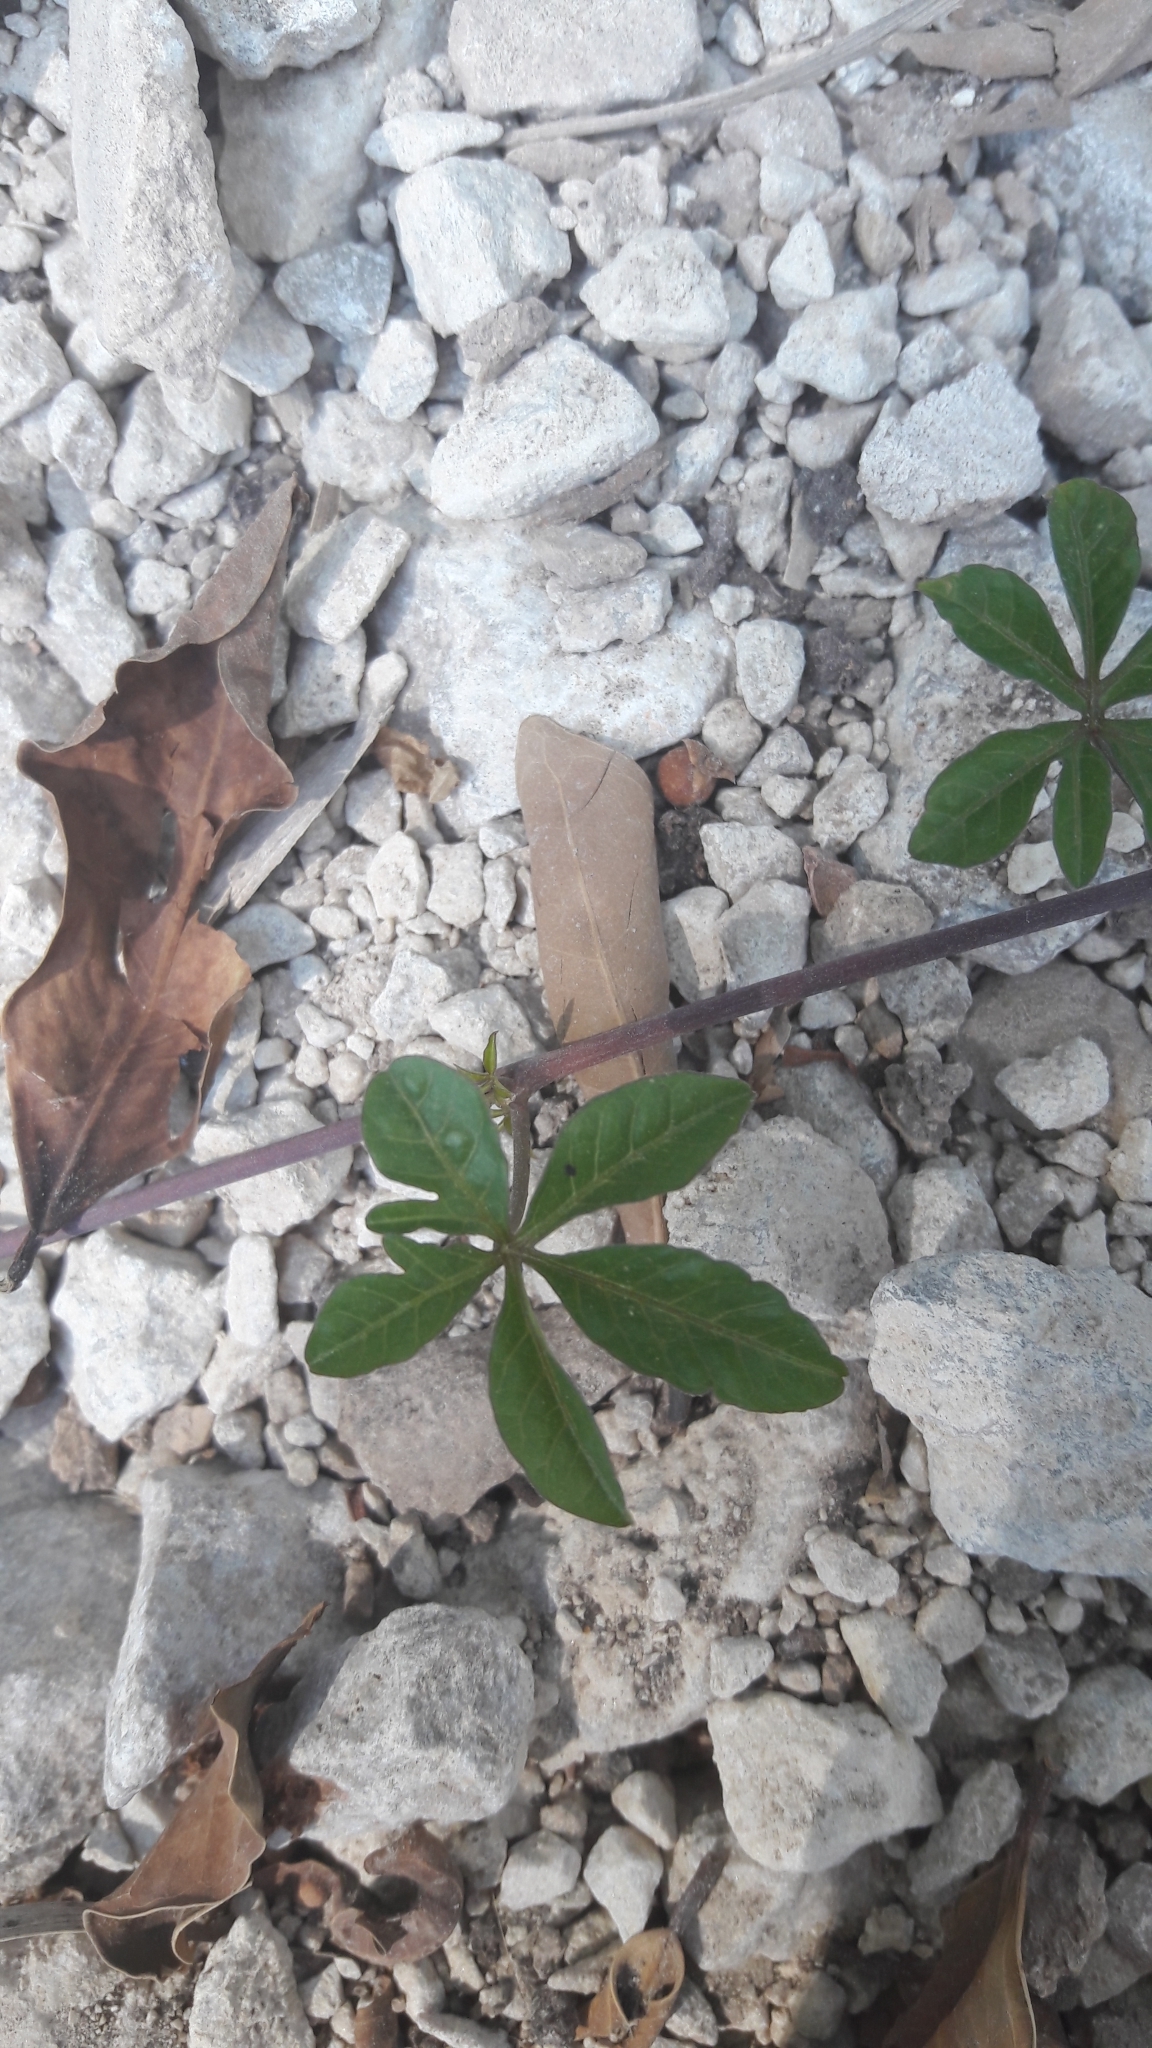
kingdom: Plantae
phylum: Tracheophyta
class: Magnoliopsida
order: Solanales
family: Convolvulaceae
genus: Ipomoea
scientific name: Ipomoea cairica
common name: Mile a minute vine
